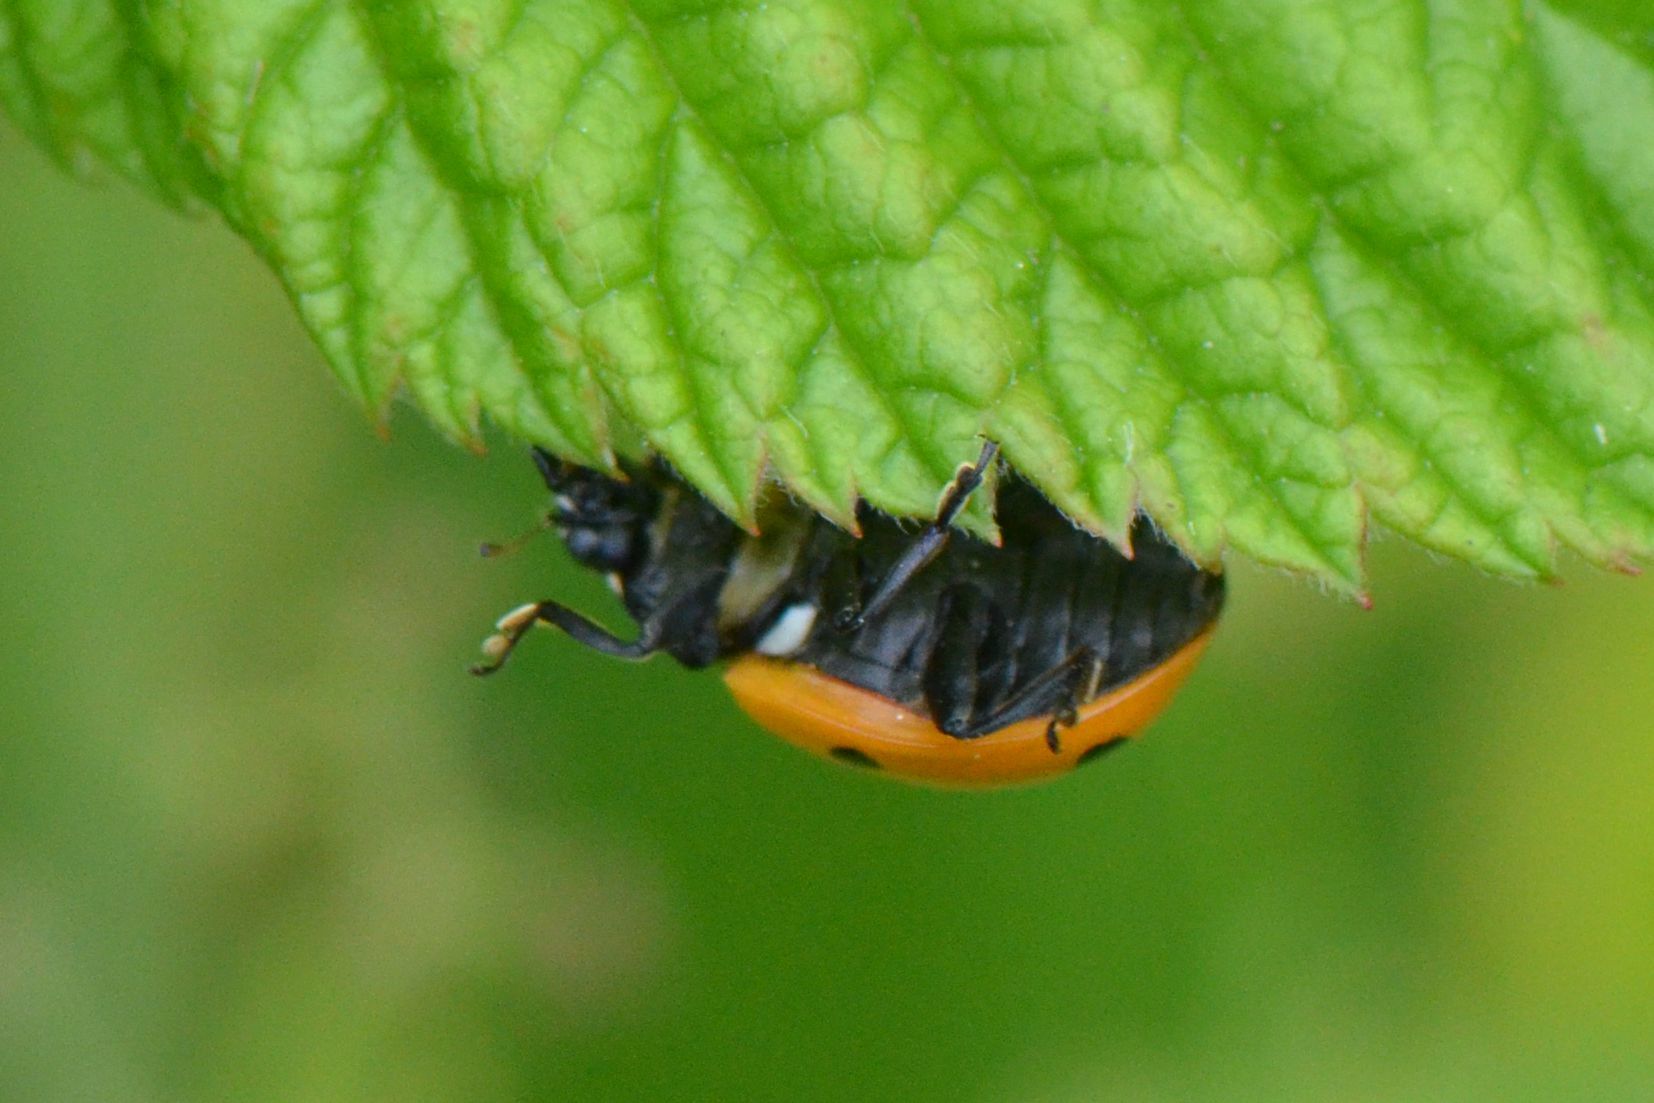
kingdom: Animalia
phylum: Arthropoda
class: Insecta
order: Coleoptera
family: Coccinellidae
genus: Coccinella
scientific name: Coccinella septempunctata
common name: Sevenspotted lady beetle
